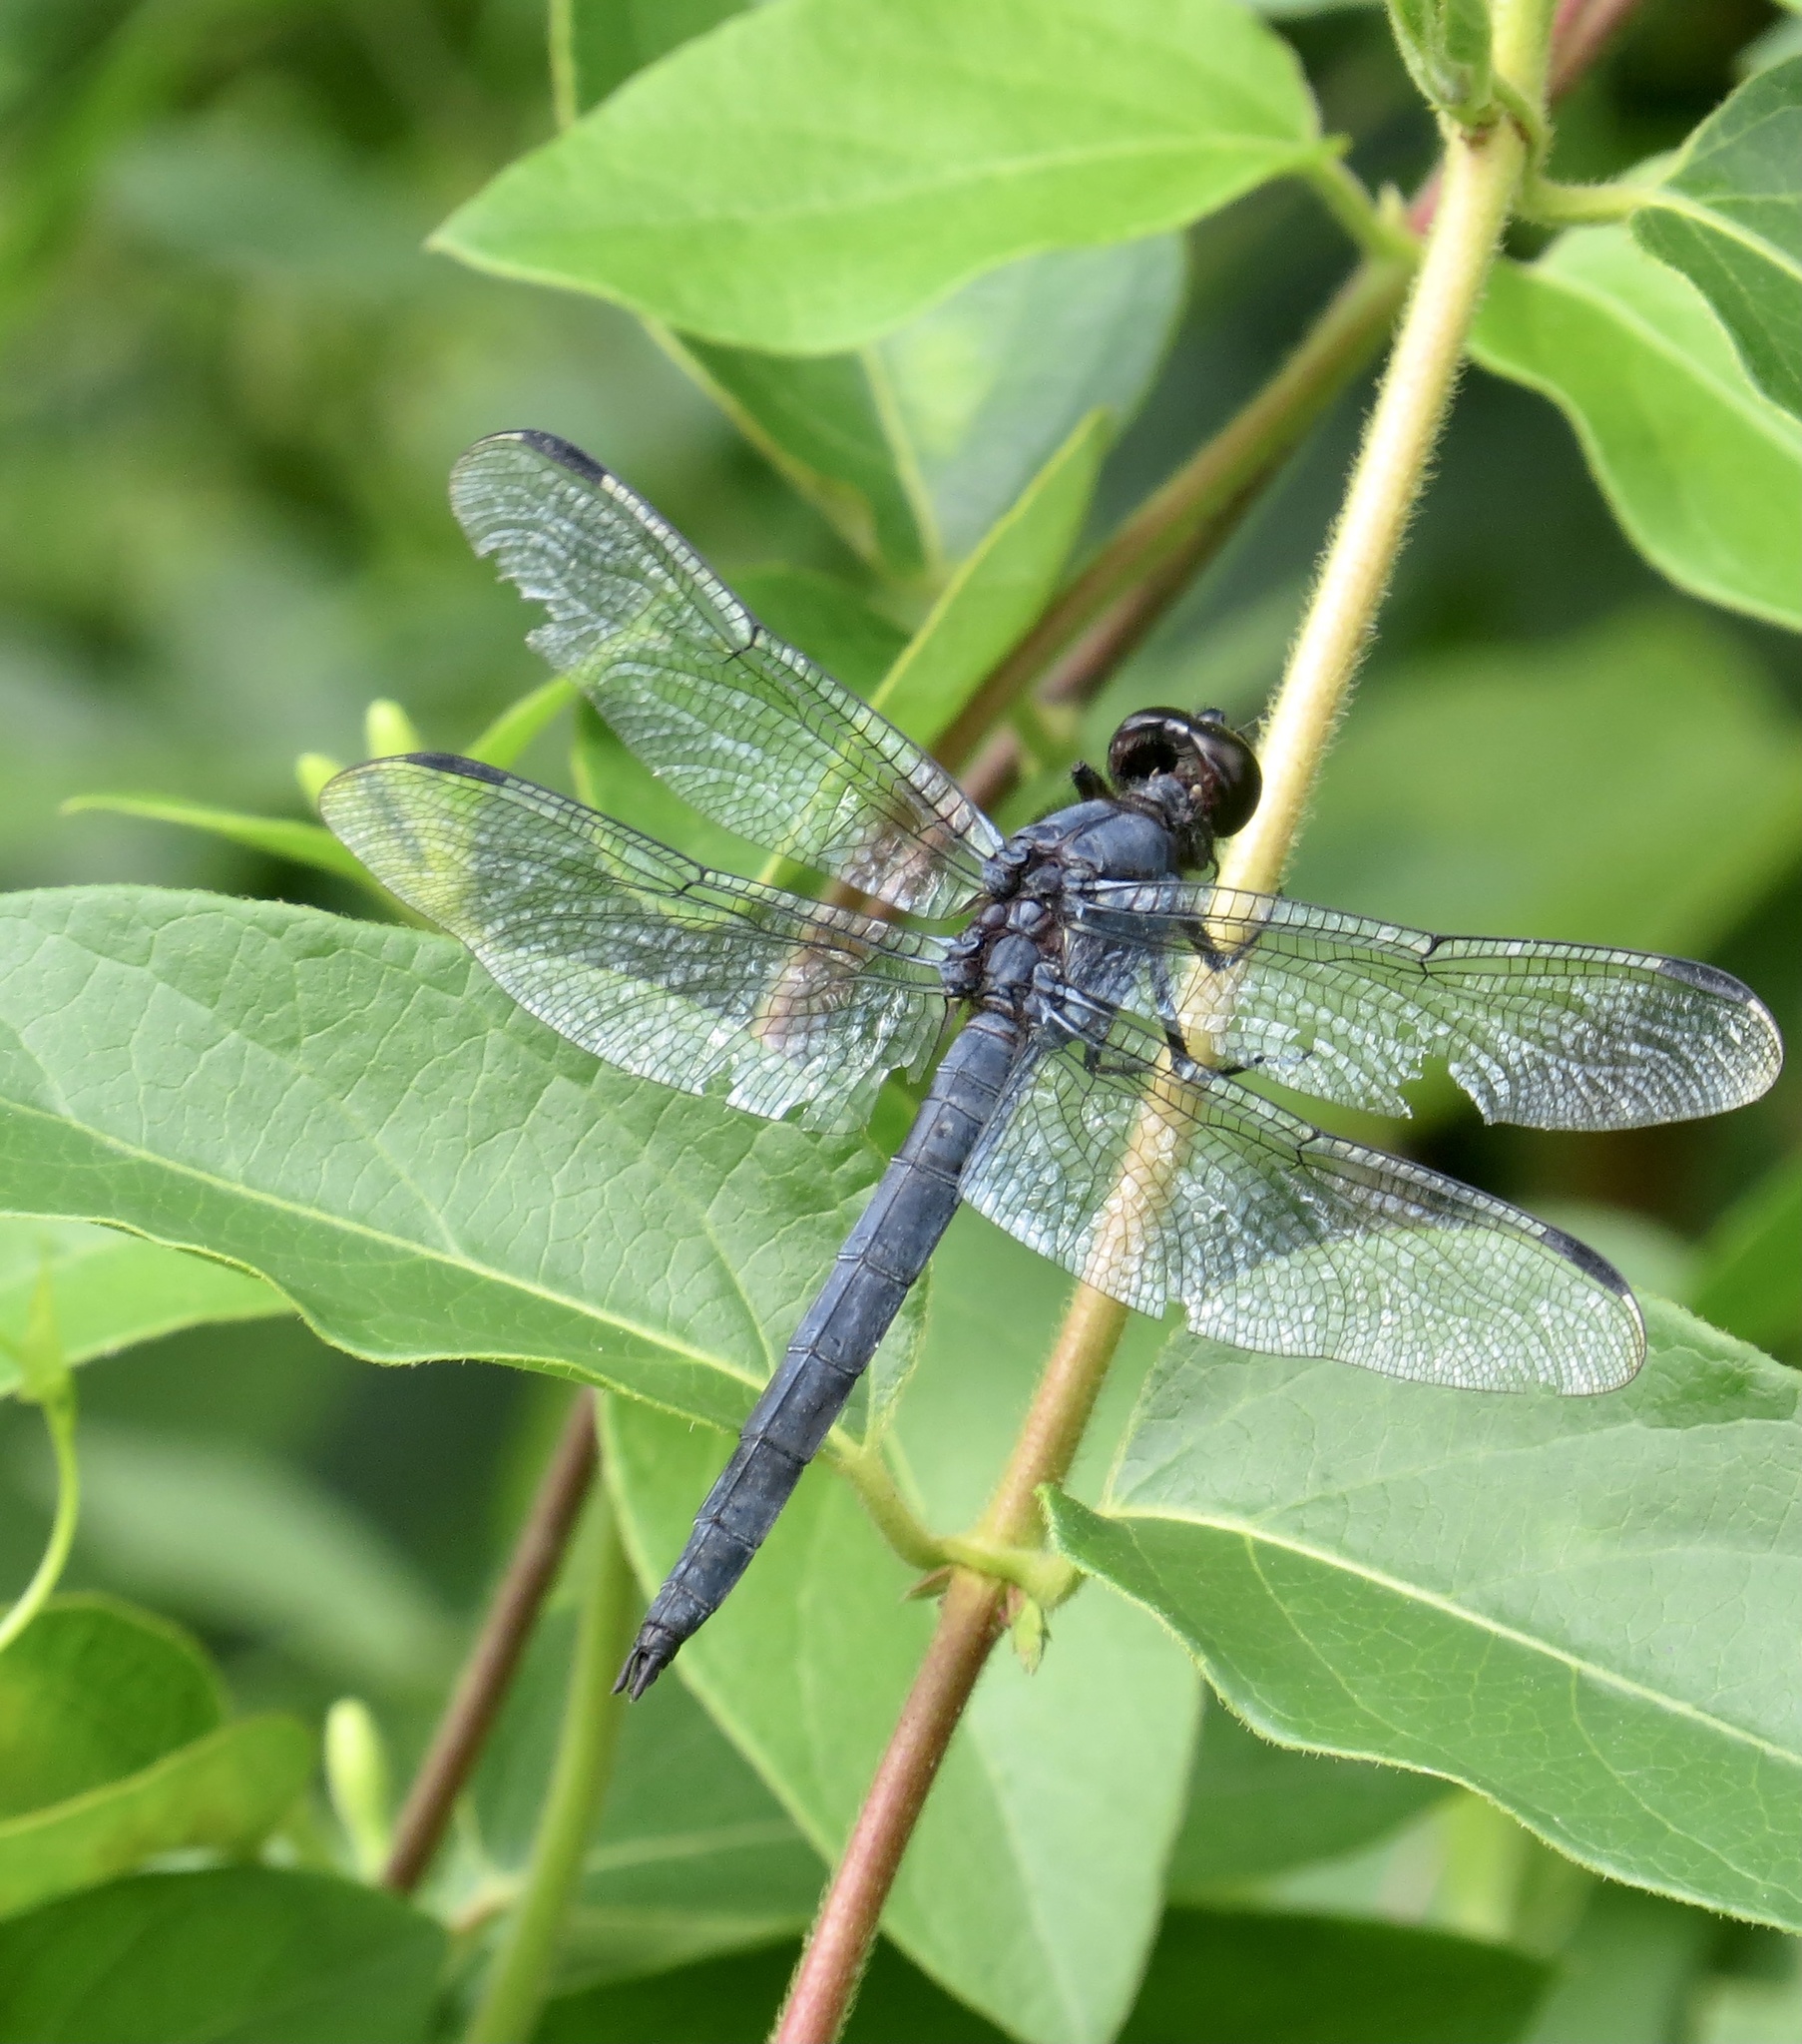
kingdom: Animalia
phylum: Arthropoda
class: Insecta
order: Odonata
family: Libellulidae
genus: Libellula
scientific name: Libellula incesta
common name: Slaty skimmer
